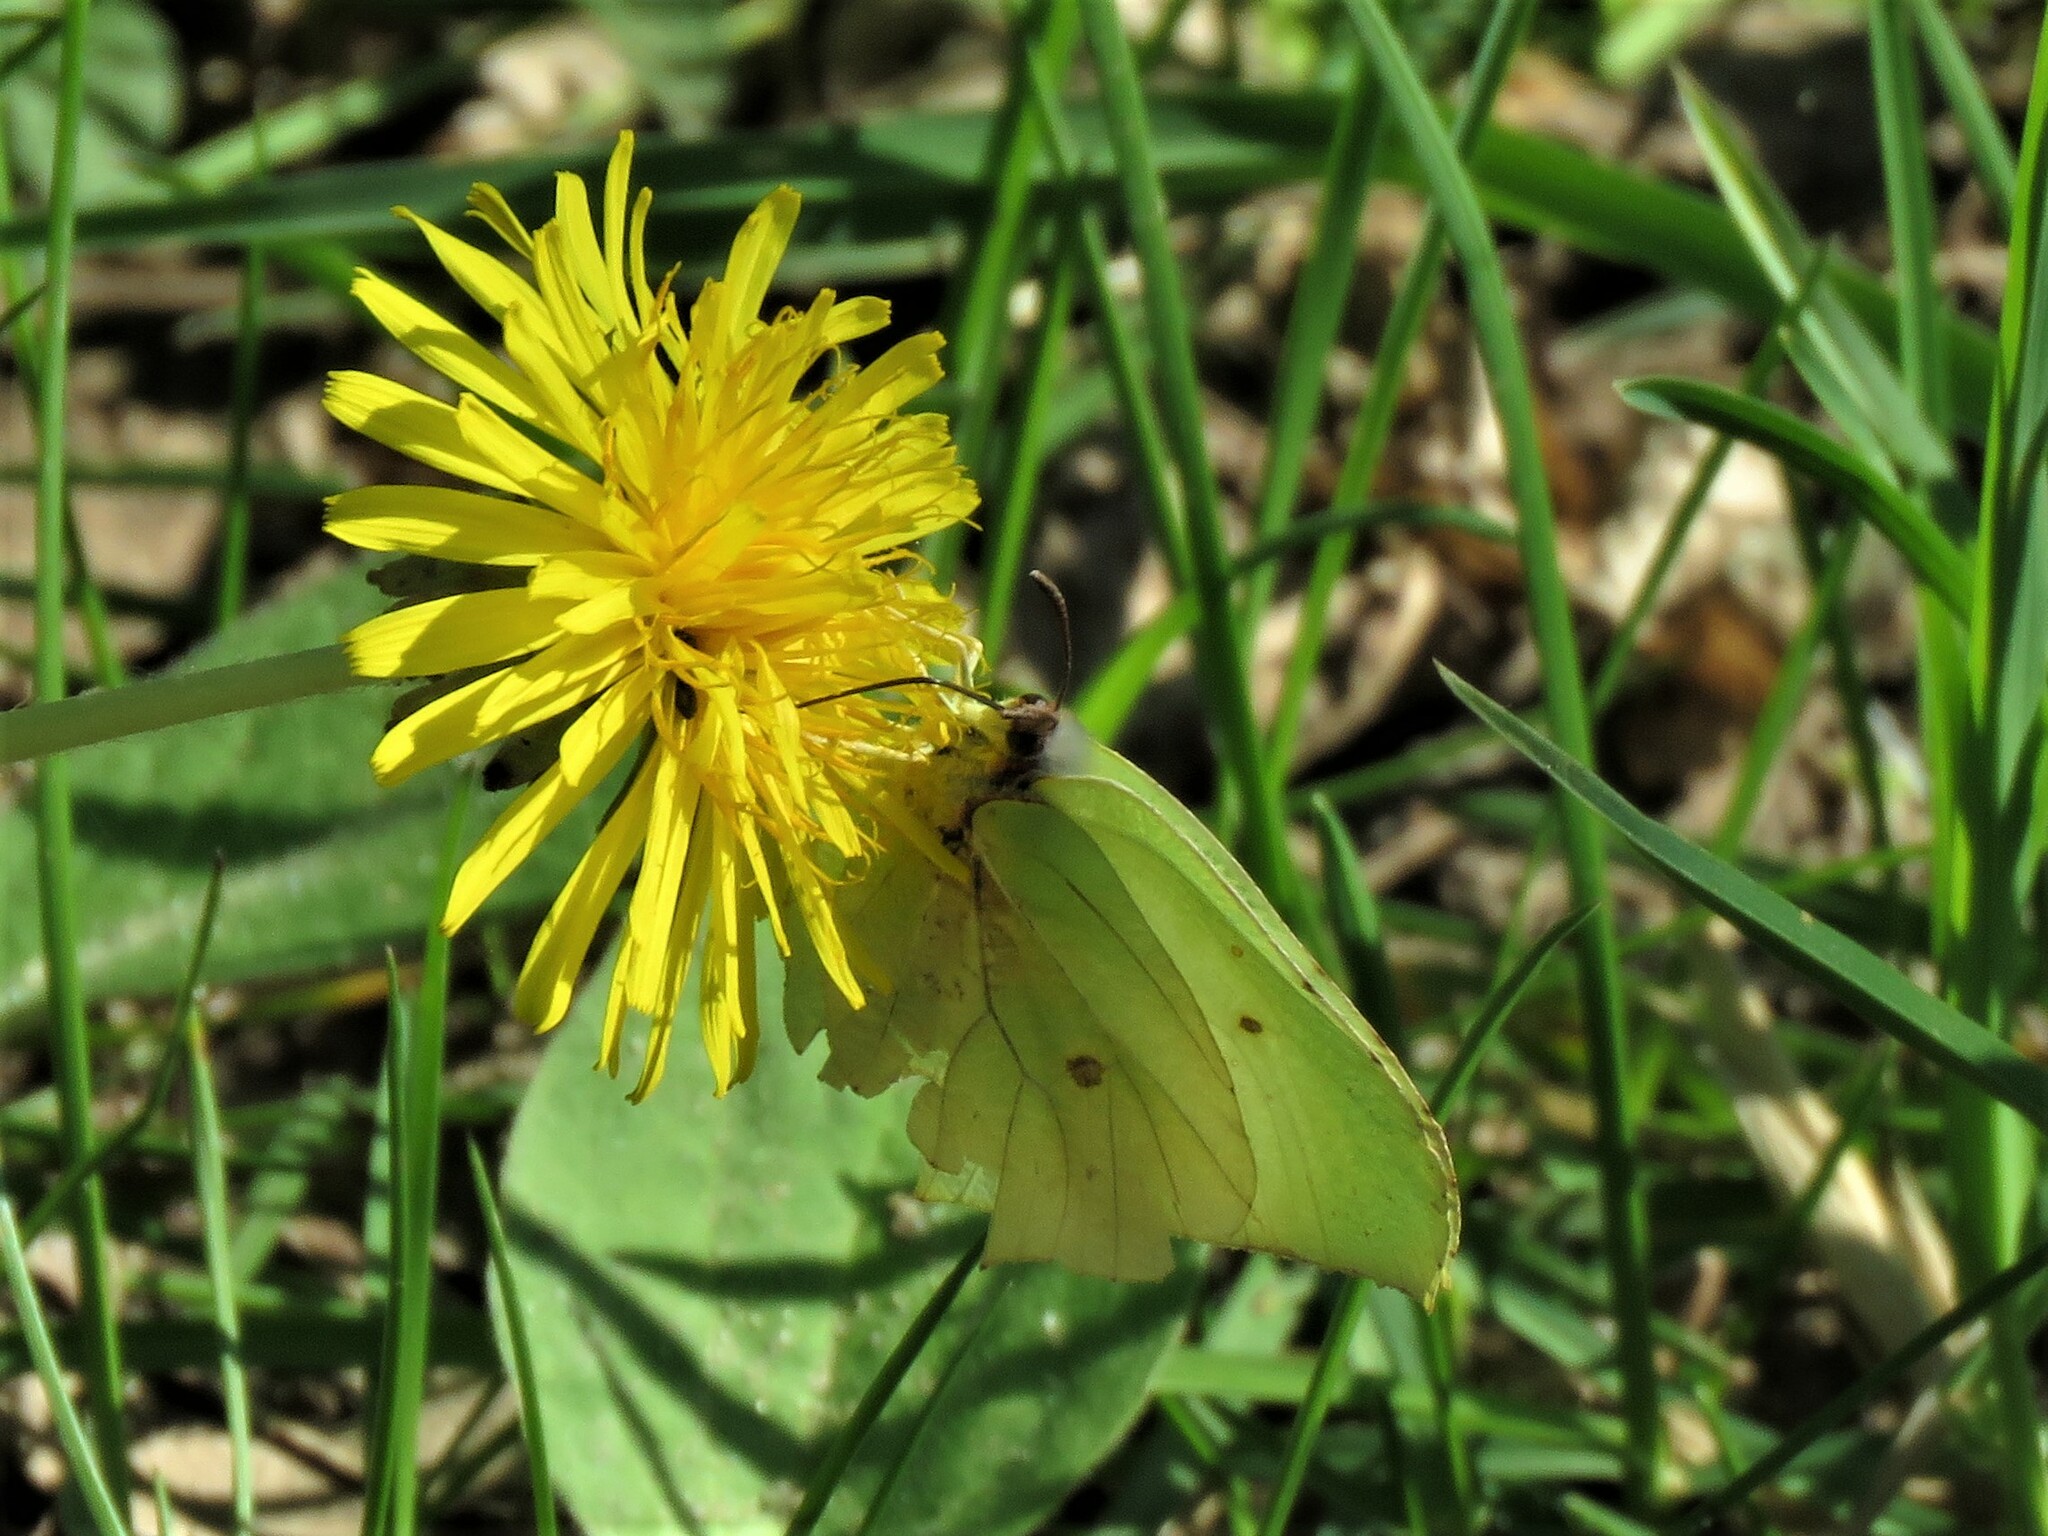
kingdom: Animalia
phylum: Arthropoda
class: Insecta
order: Lepidoptera
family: Pieridae
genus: Gonepteryx
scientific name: Gonepteryx rhamni
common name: Brimstone
